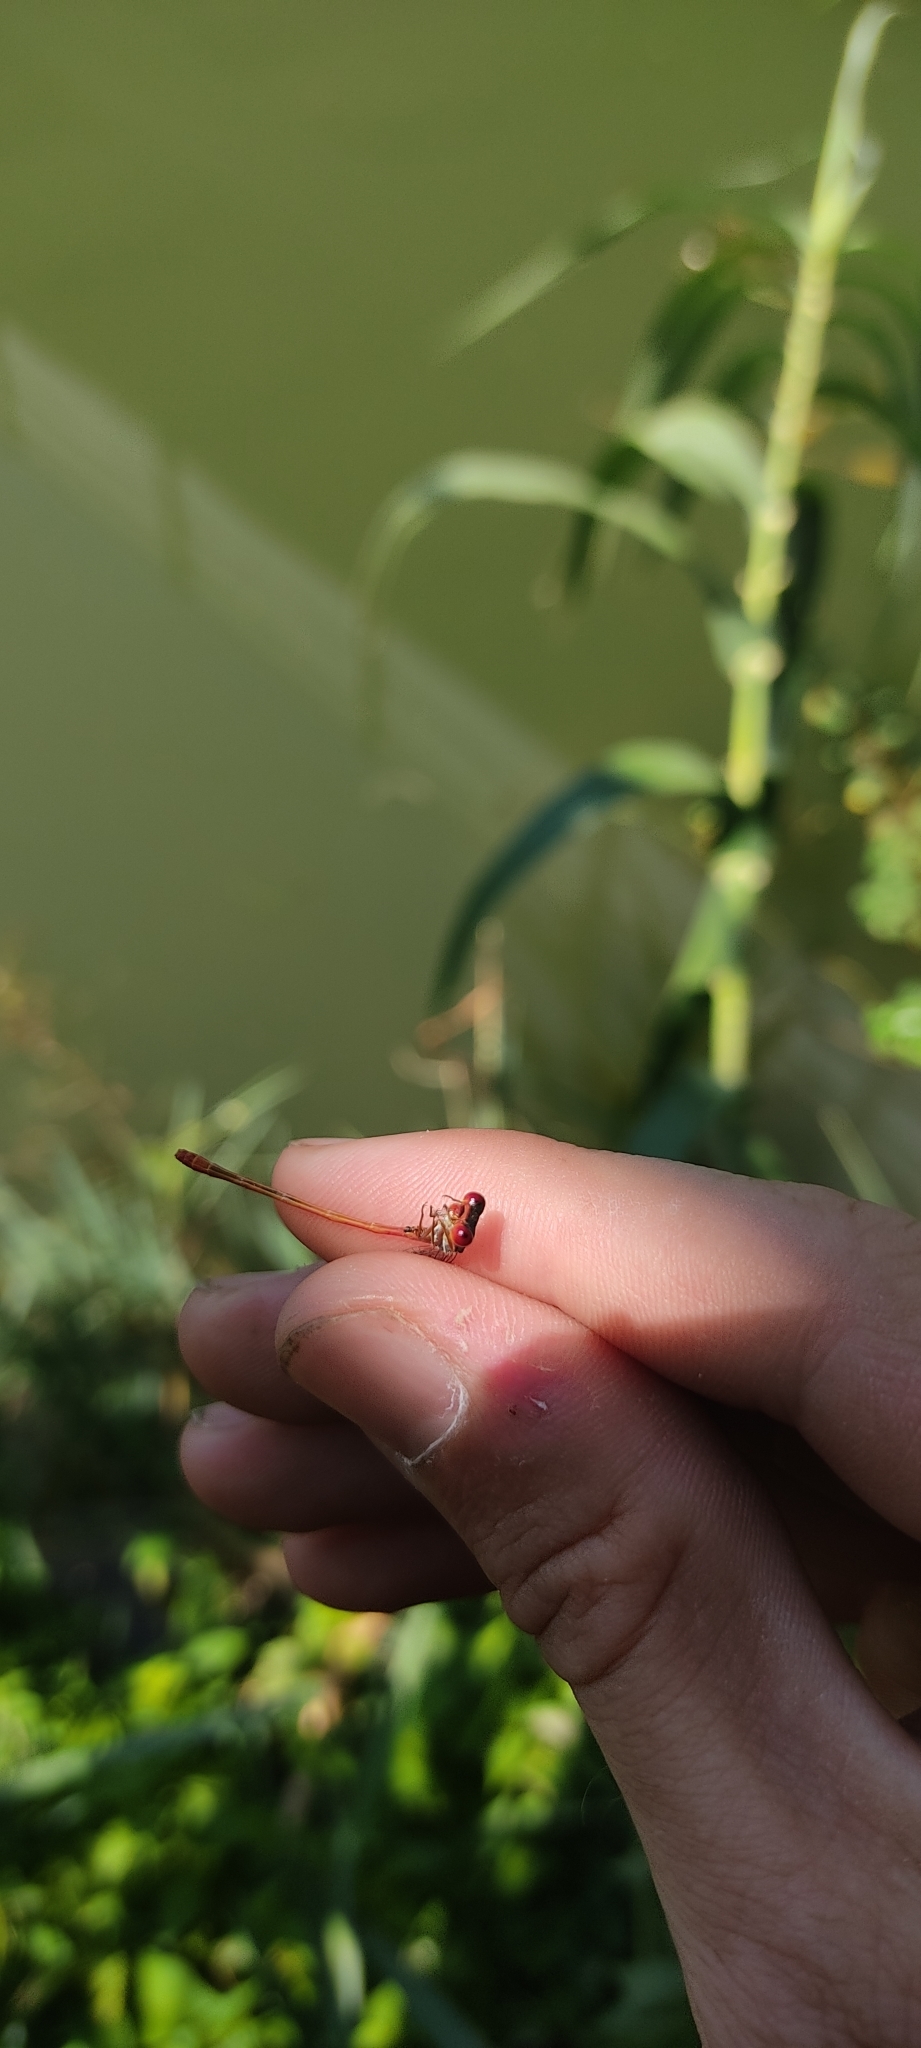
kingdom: Animalia
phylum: Arthropoda
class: Insecta
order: Odonata
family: Coenagrionidae
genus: Ceriagrion
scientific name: Ceriagrion tenellum
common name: Small red damselfly
